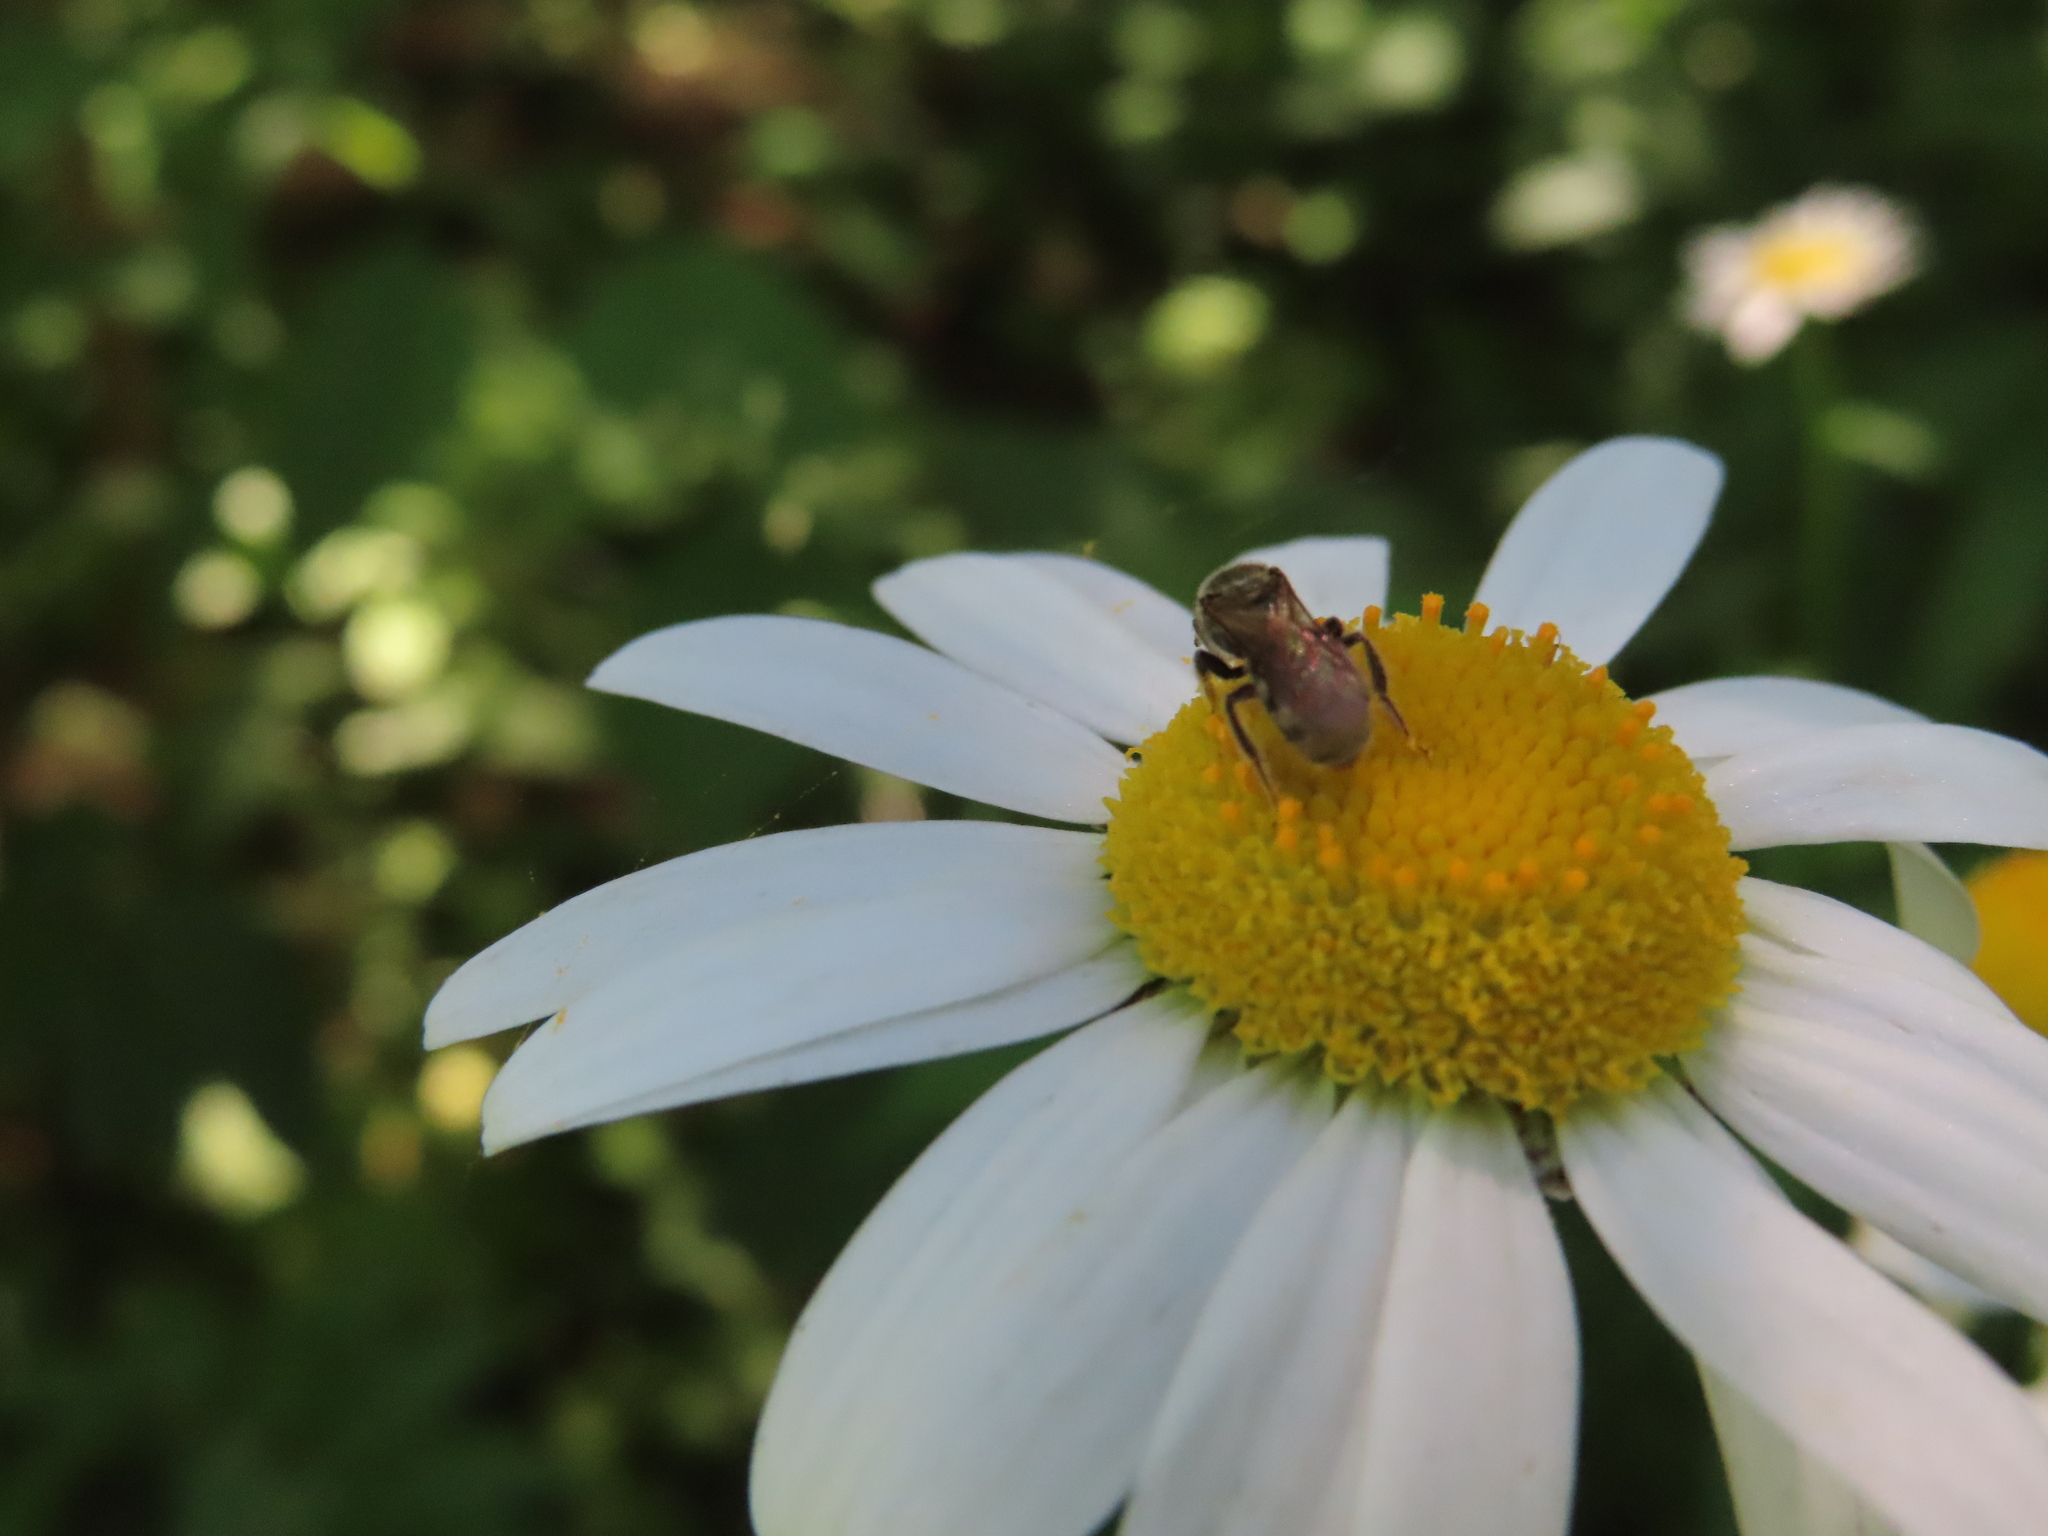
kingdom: Animalia
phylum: Arthropoda
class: Insecta
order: Hymenoptera
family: Halictidae
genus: Dialictus
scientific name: Dialictus
